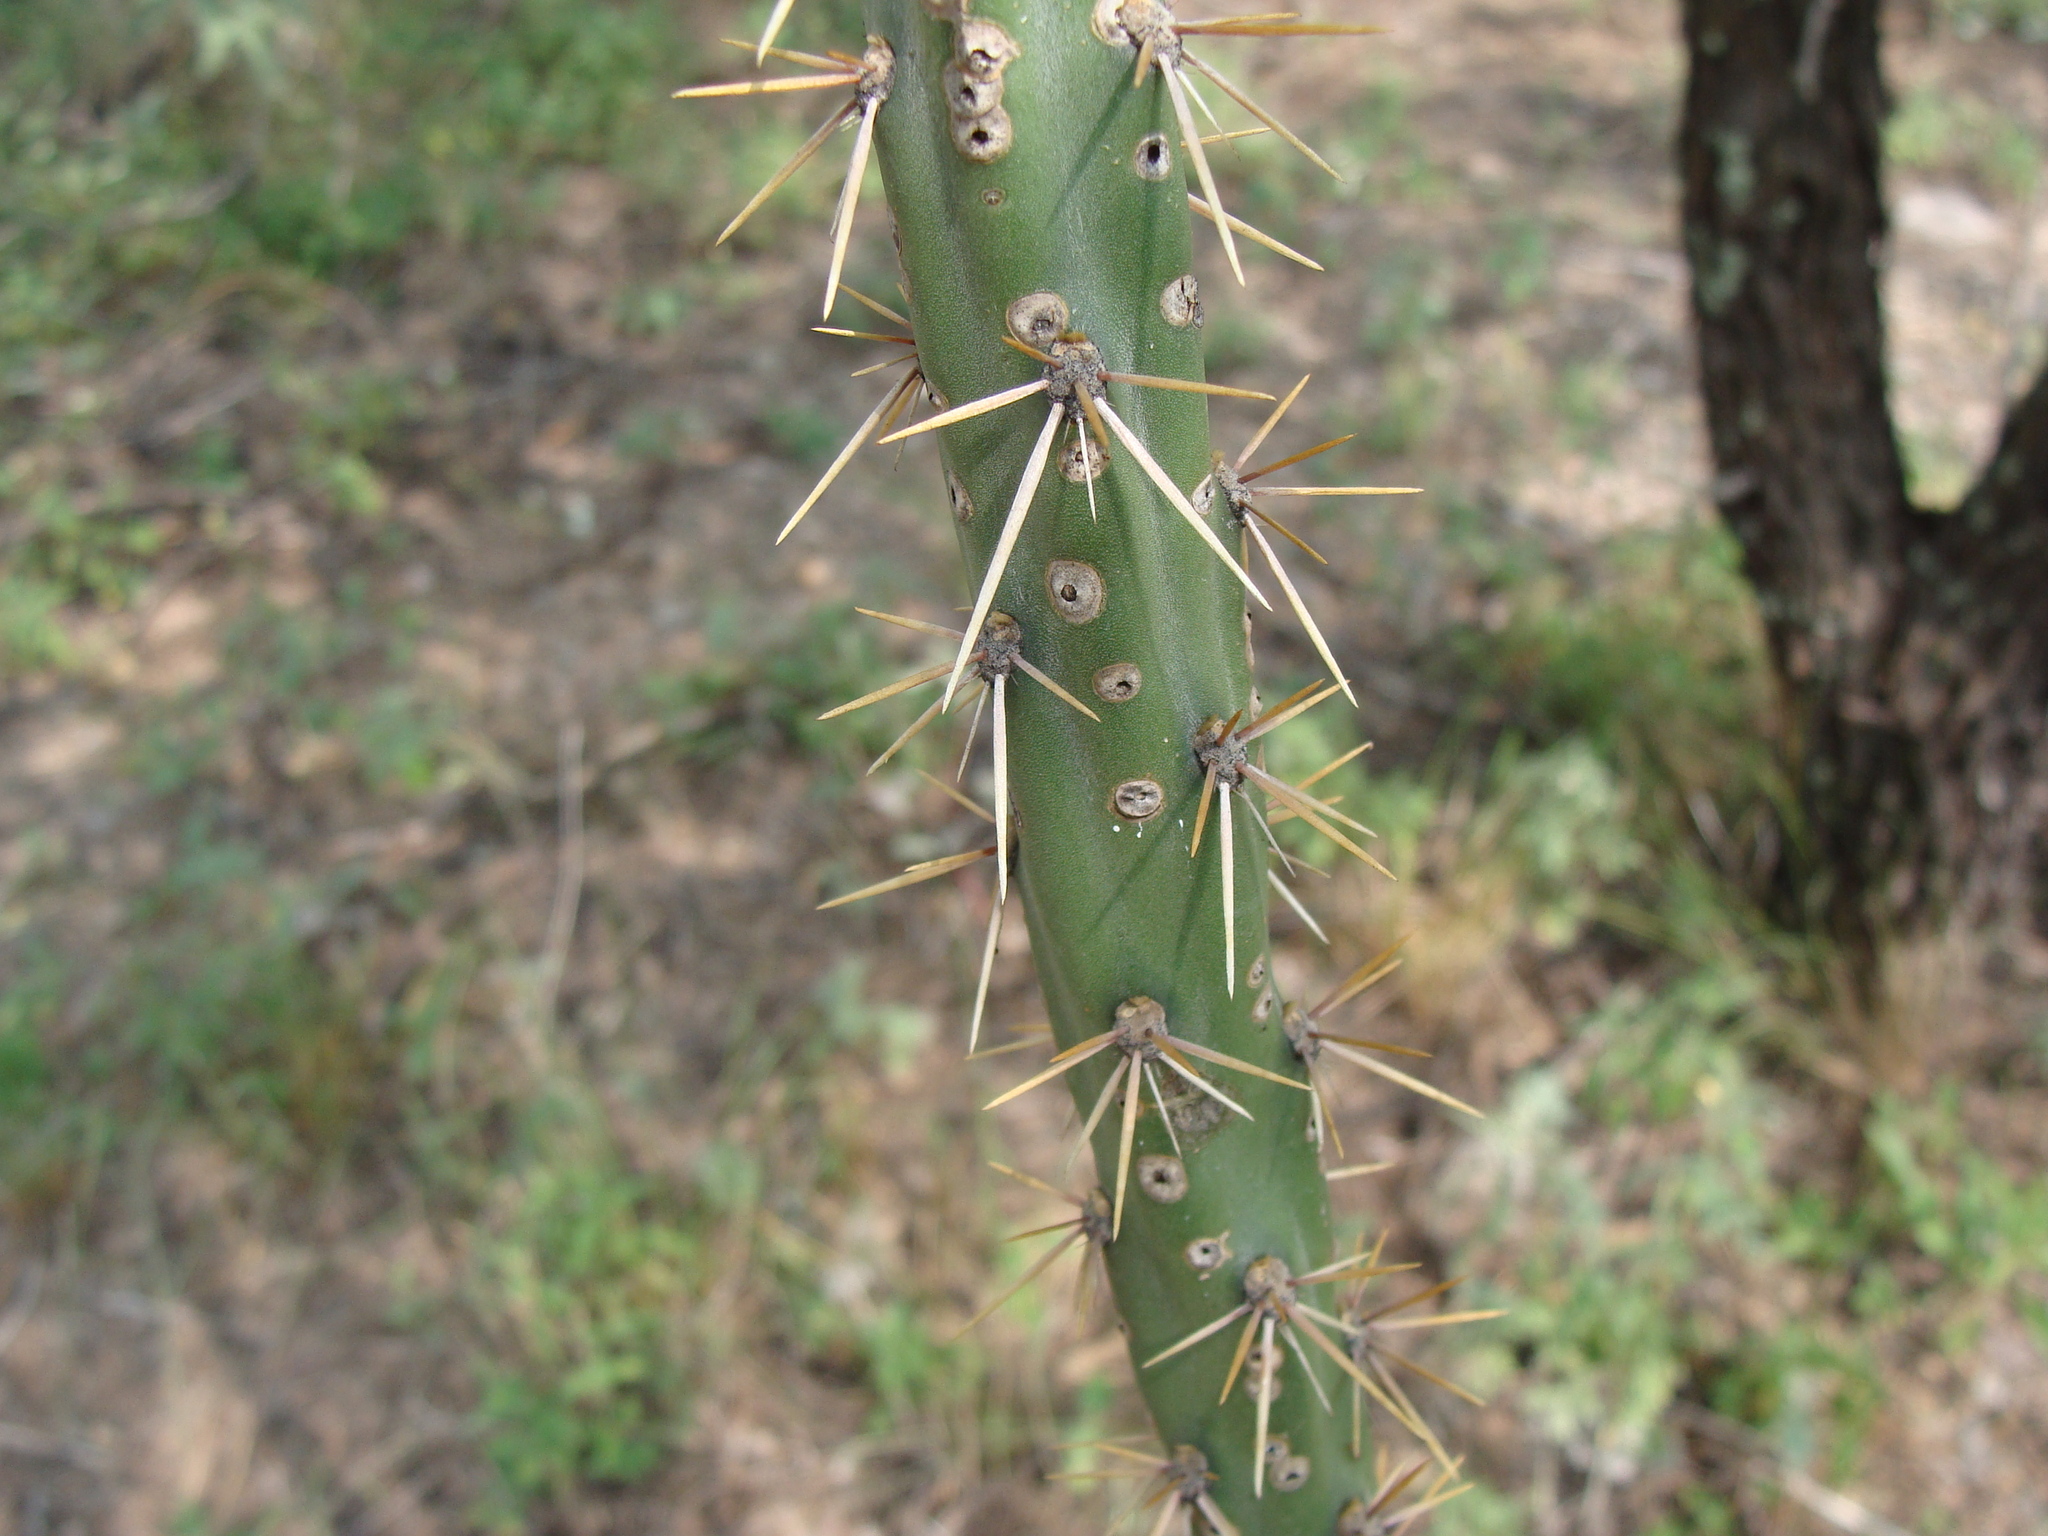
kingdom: Plantae
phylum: Tracheophyta
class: Magnoliopsida
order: Caryophyllales
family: Cactaceae
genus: Cylindropuntia
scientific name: Cylindropuntia thurberi
